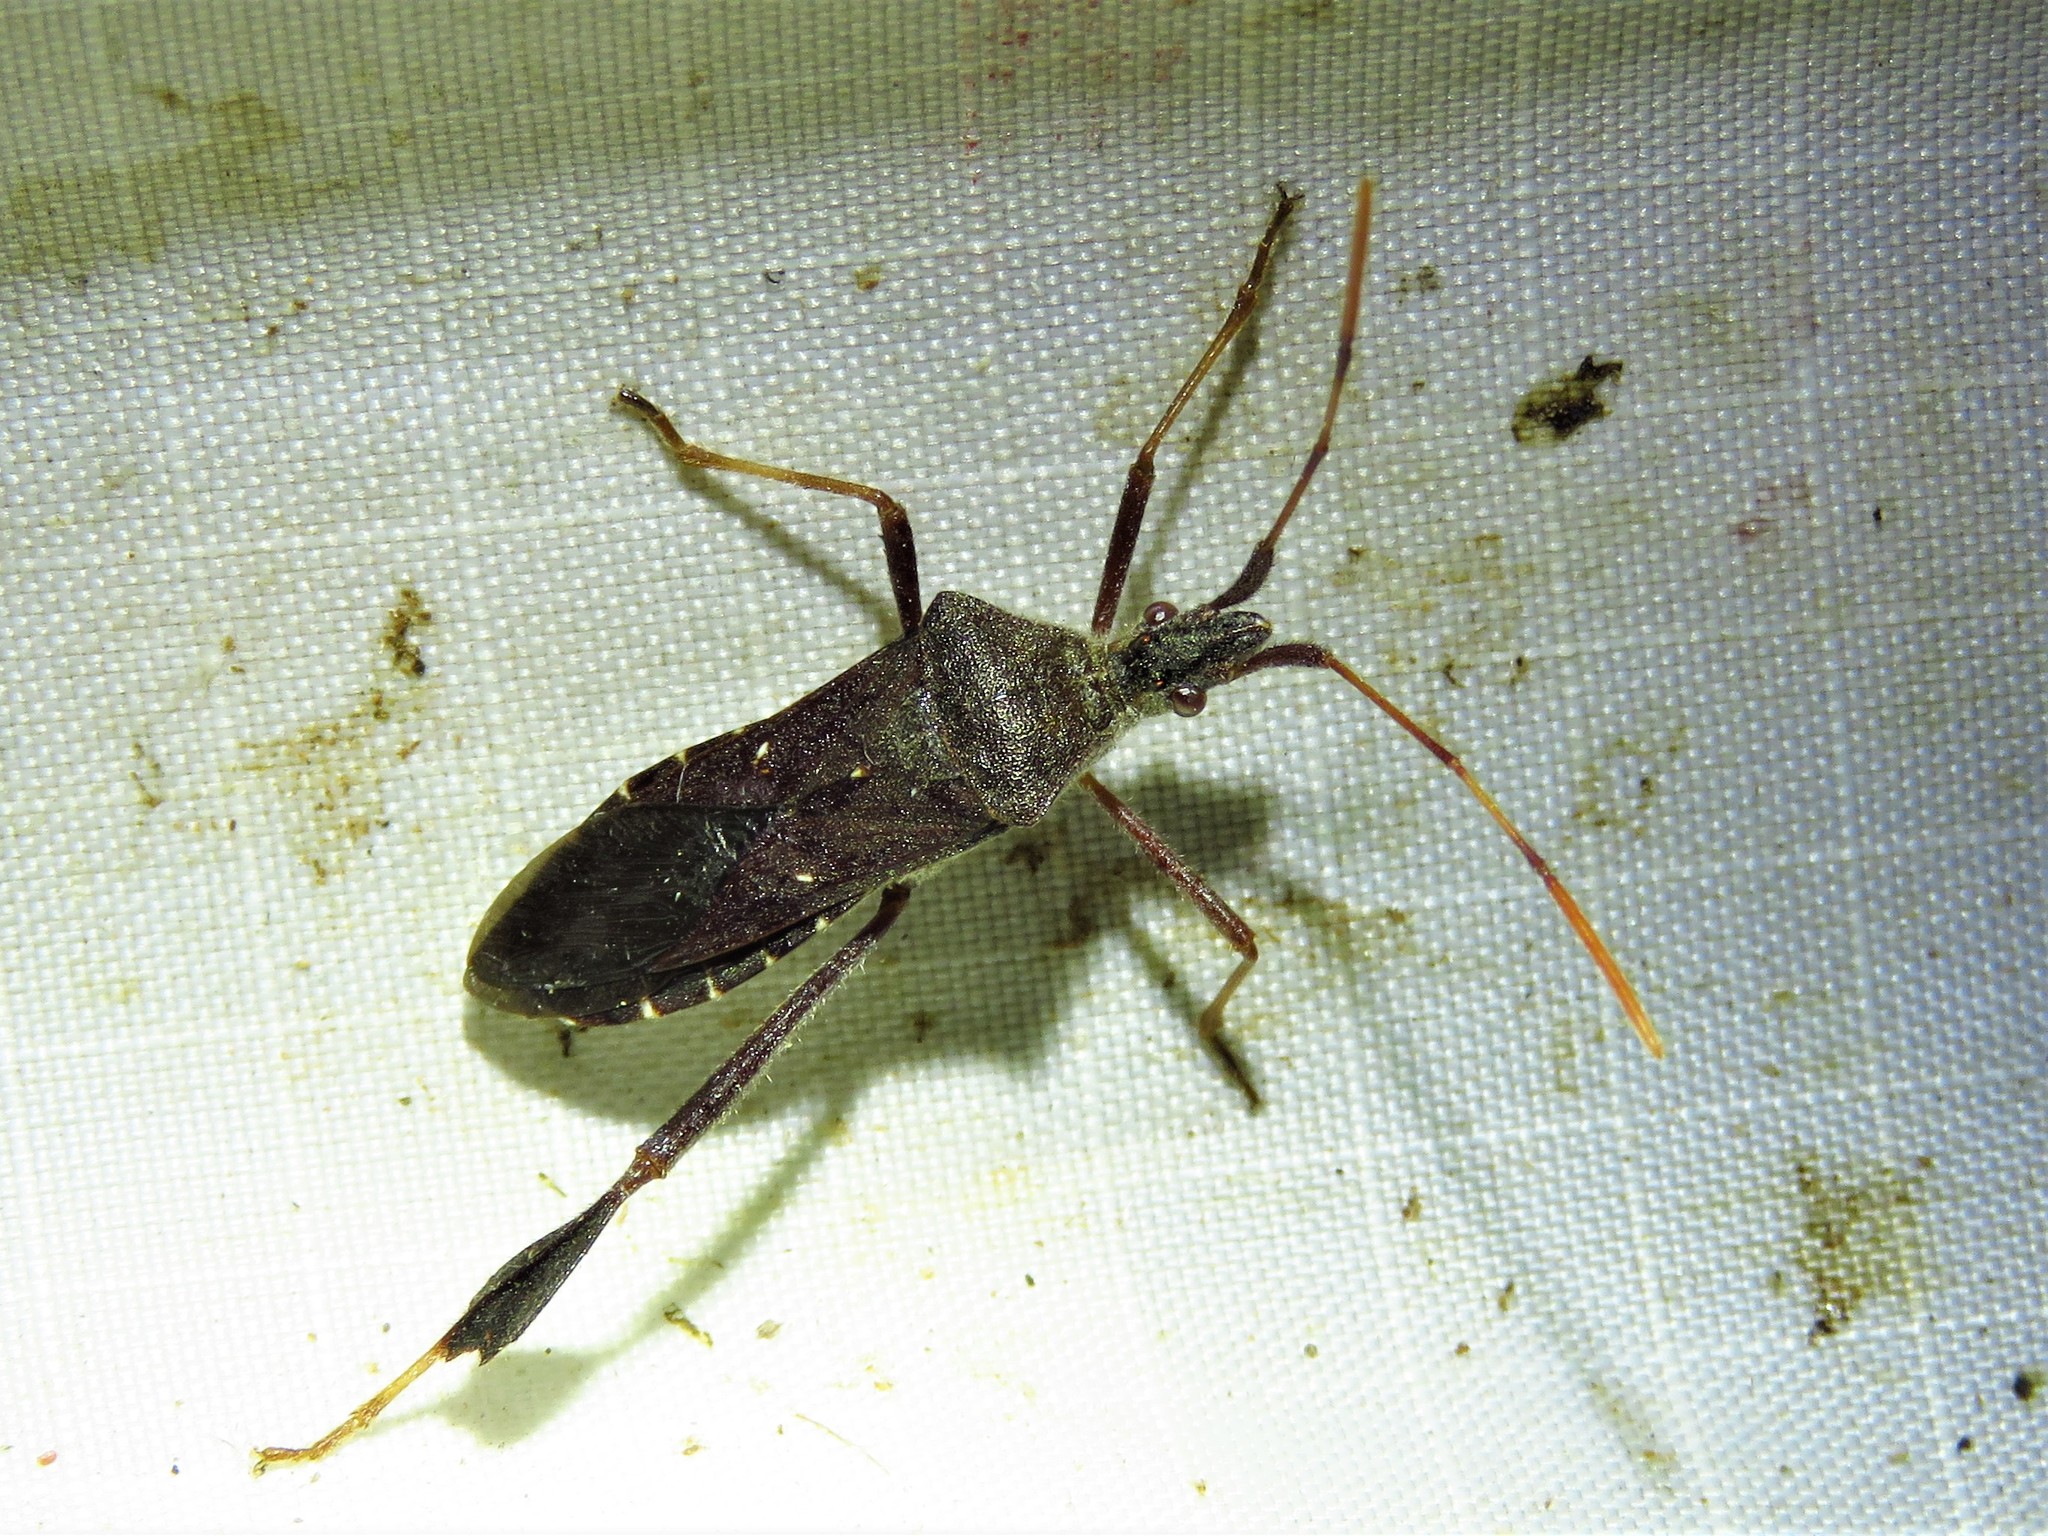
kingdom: Animalia
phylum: Arthropoda
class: Insecta
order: Hemiptera
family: Coreidae
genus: Leptoglossus
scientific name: Leptoglossus oppositus
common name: Northern leaf-footed bug
